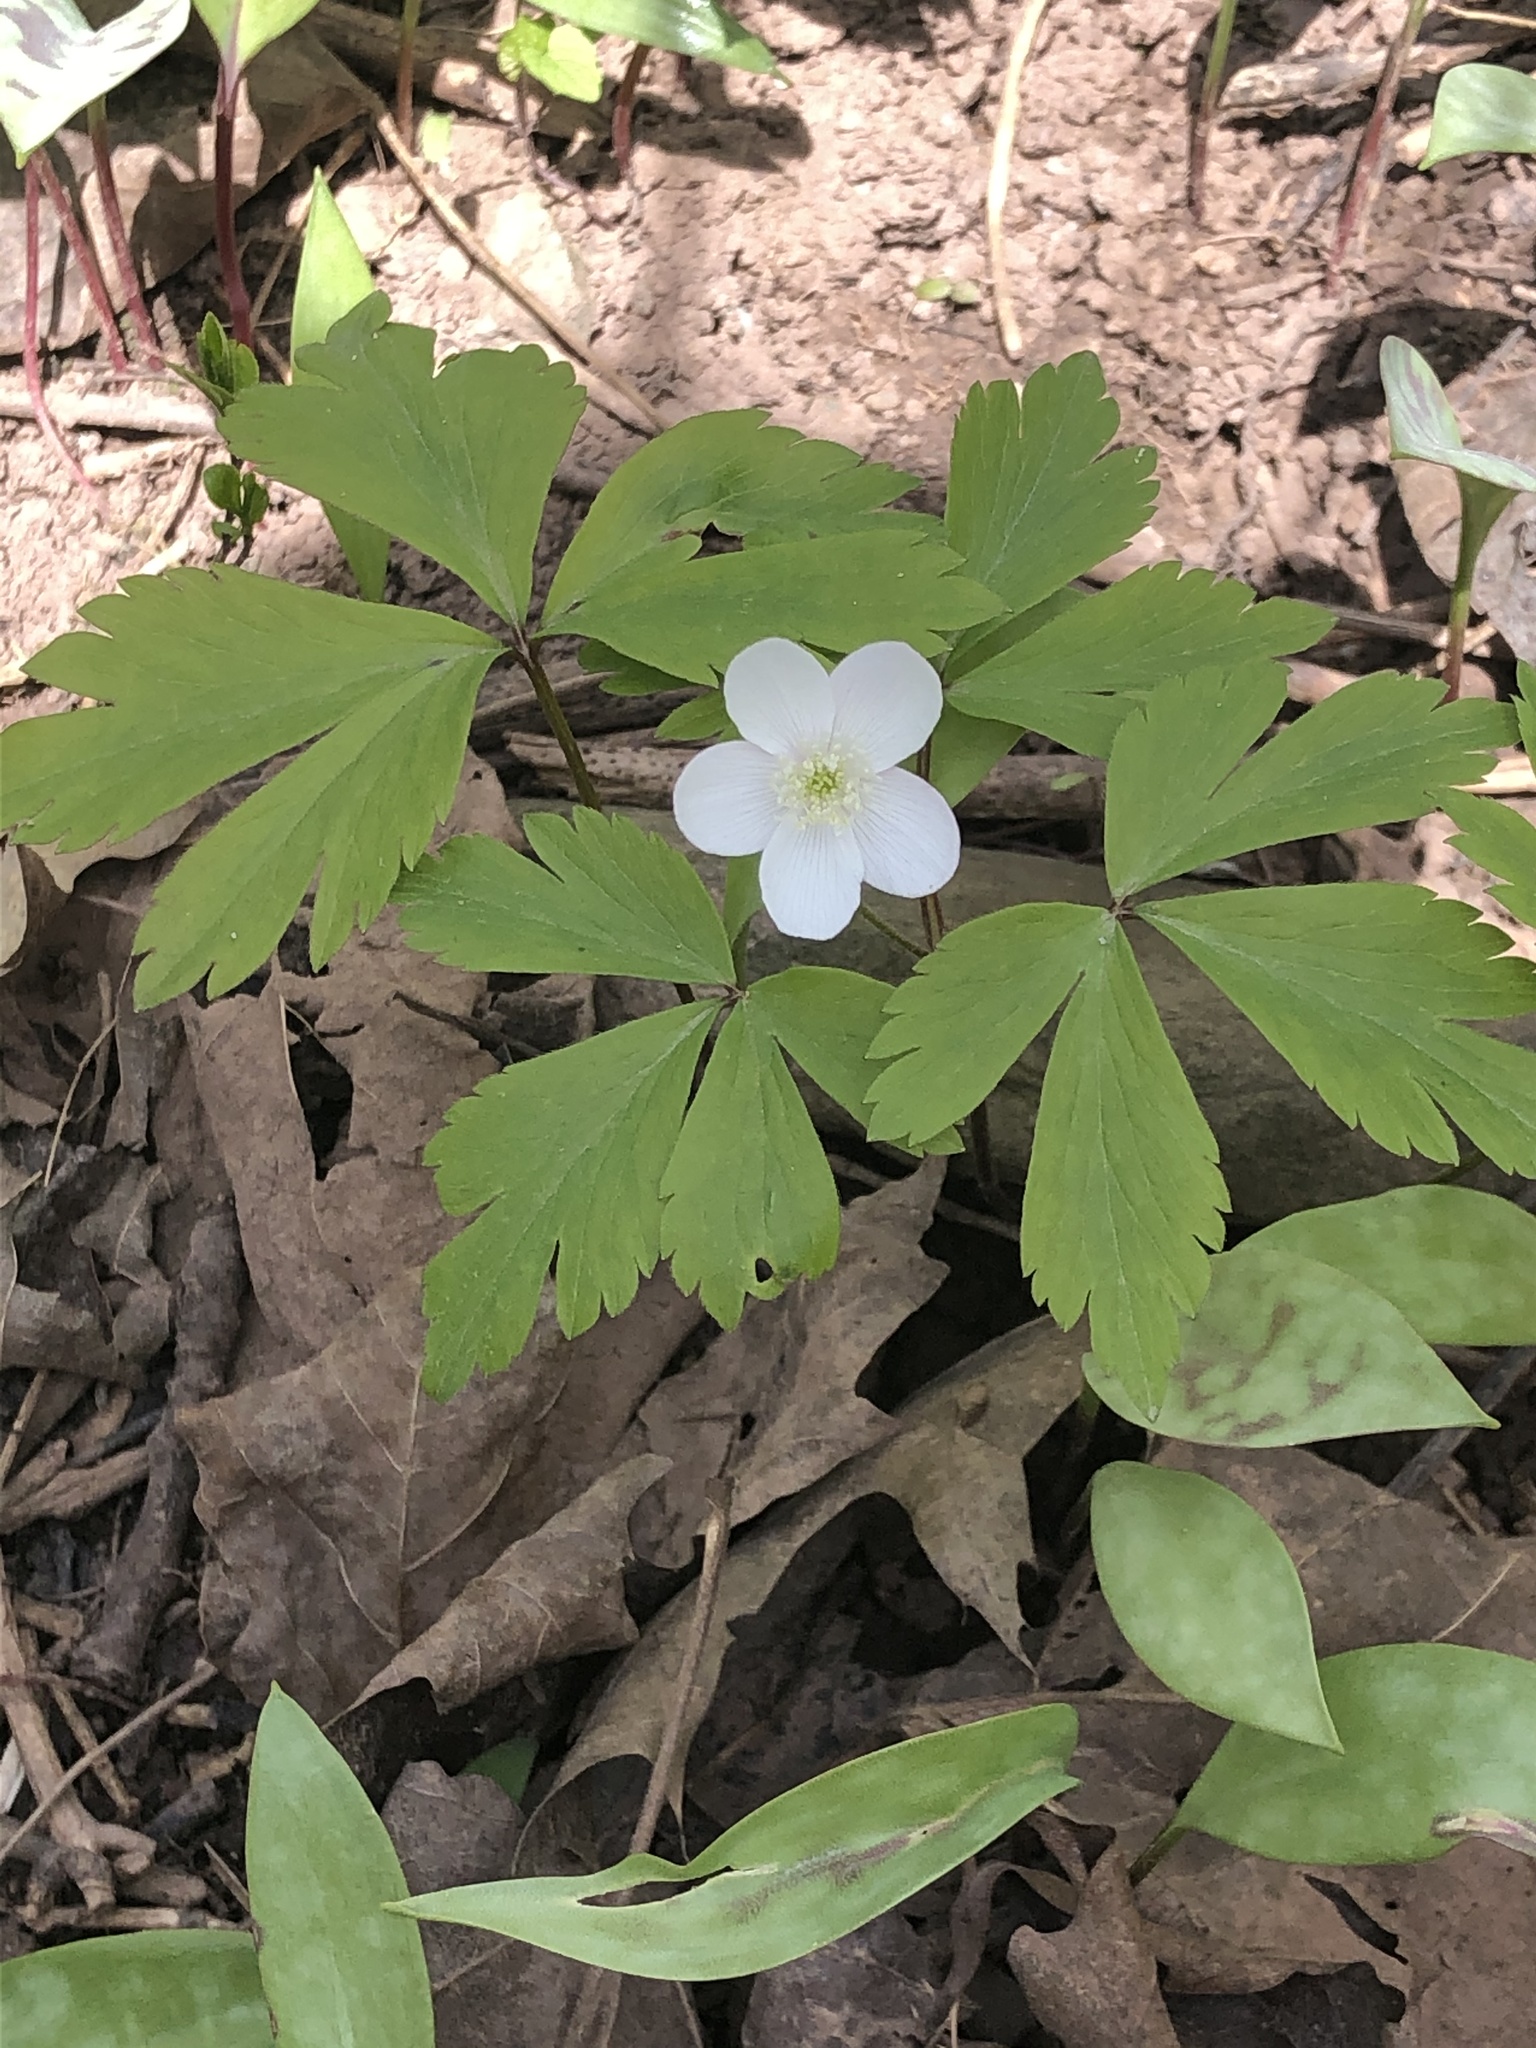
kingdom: Plantae
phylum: Tracheophyta
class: Magnoliopsida
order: Ranunculales
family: Ranunculaceae
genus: Anemone
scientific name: Anemone quinquefolia
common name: Wood anemone
